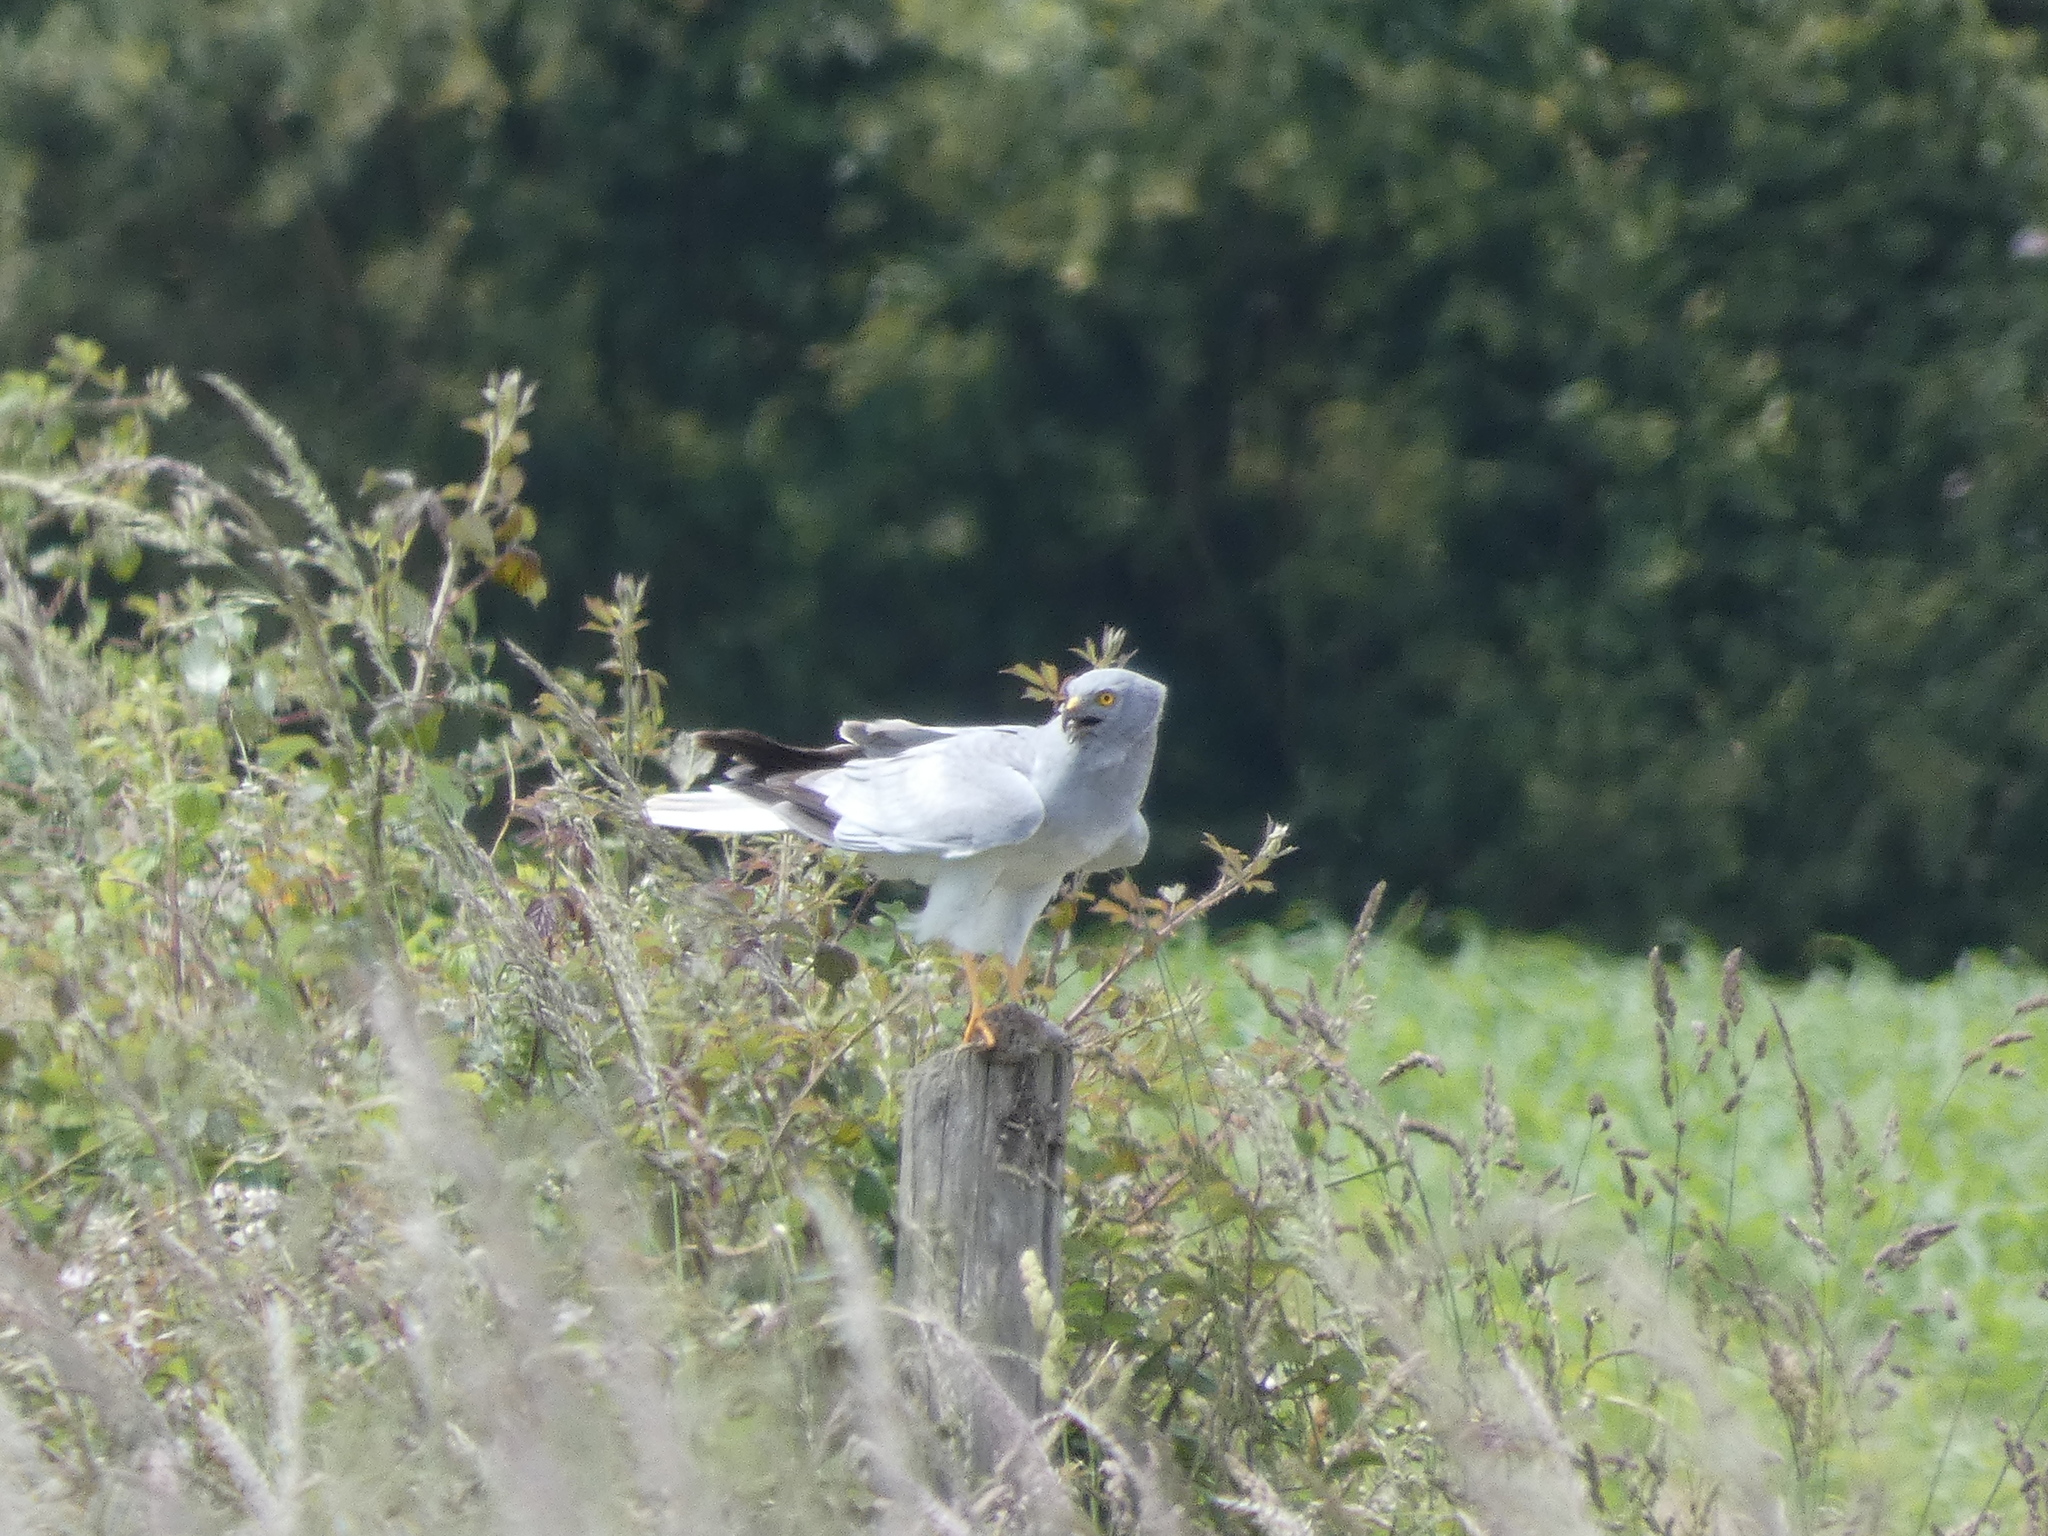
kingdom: Animalia
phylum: Chordata
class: Aves
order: Accipitriformes
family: Accipitridae
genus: Circus
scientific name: Circus cyaneus
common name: Hen harrier
